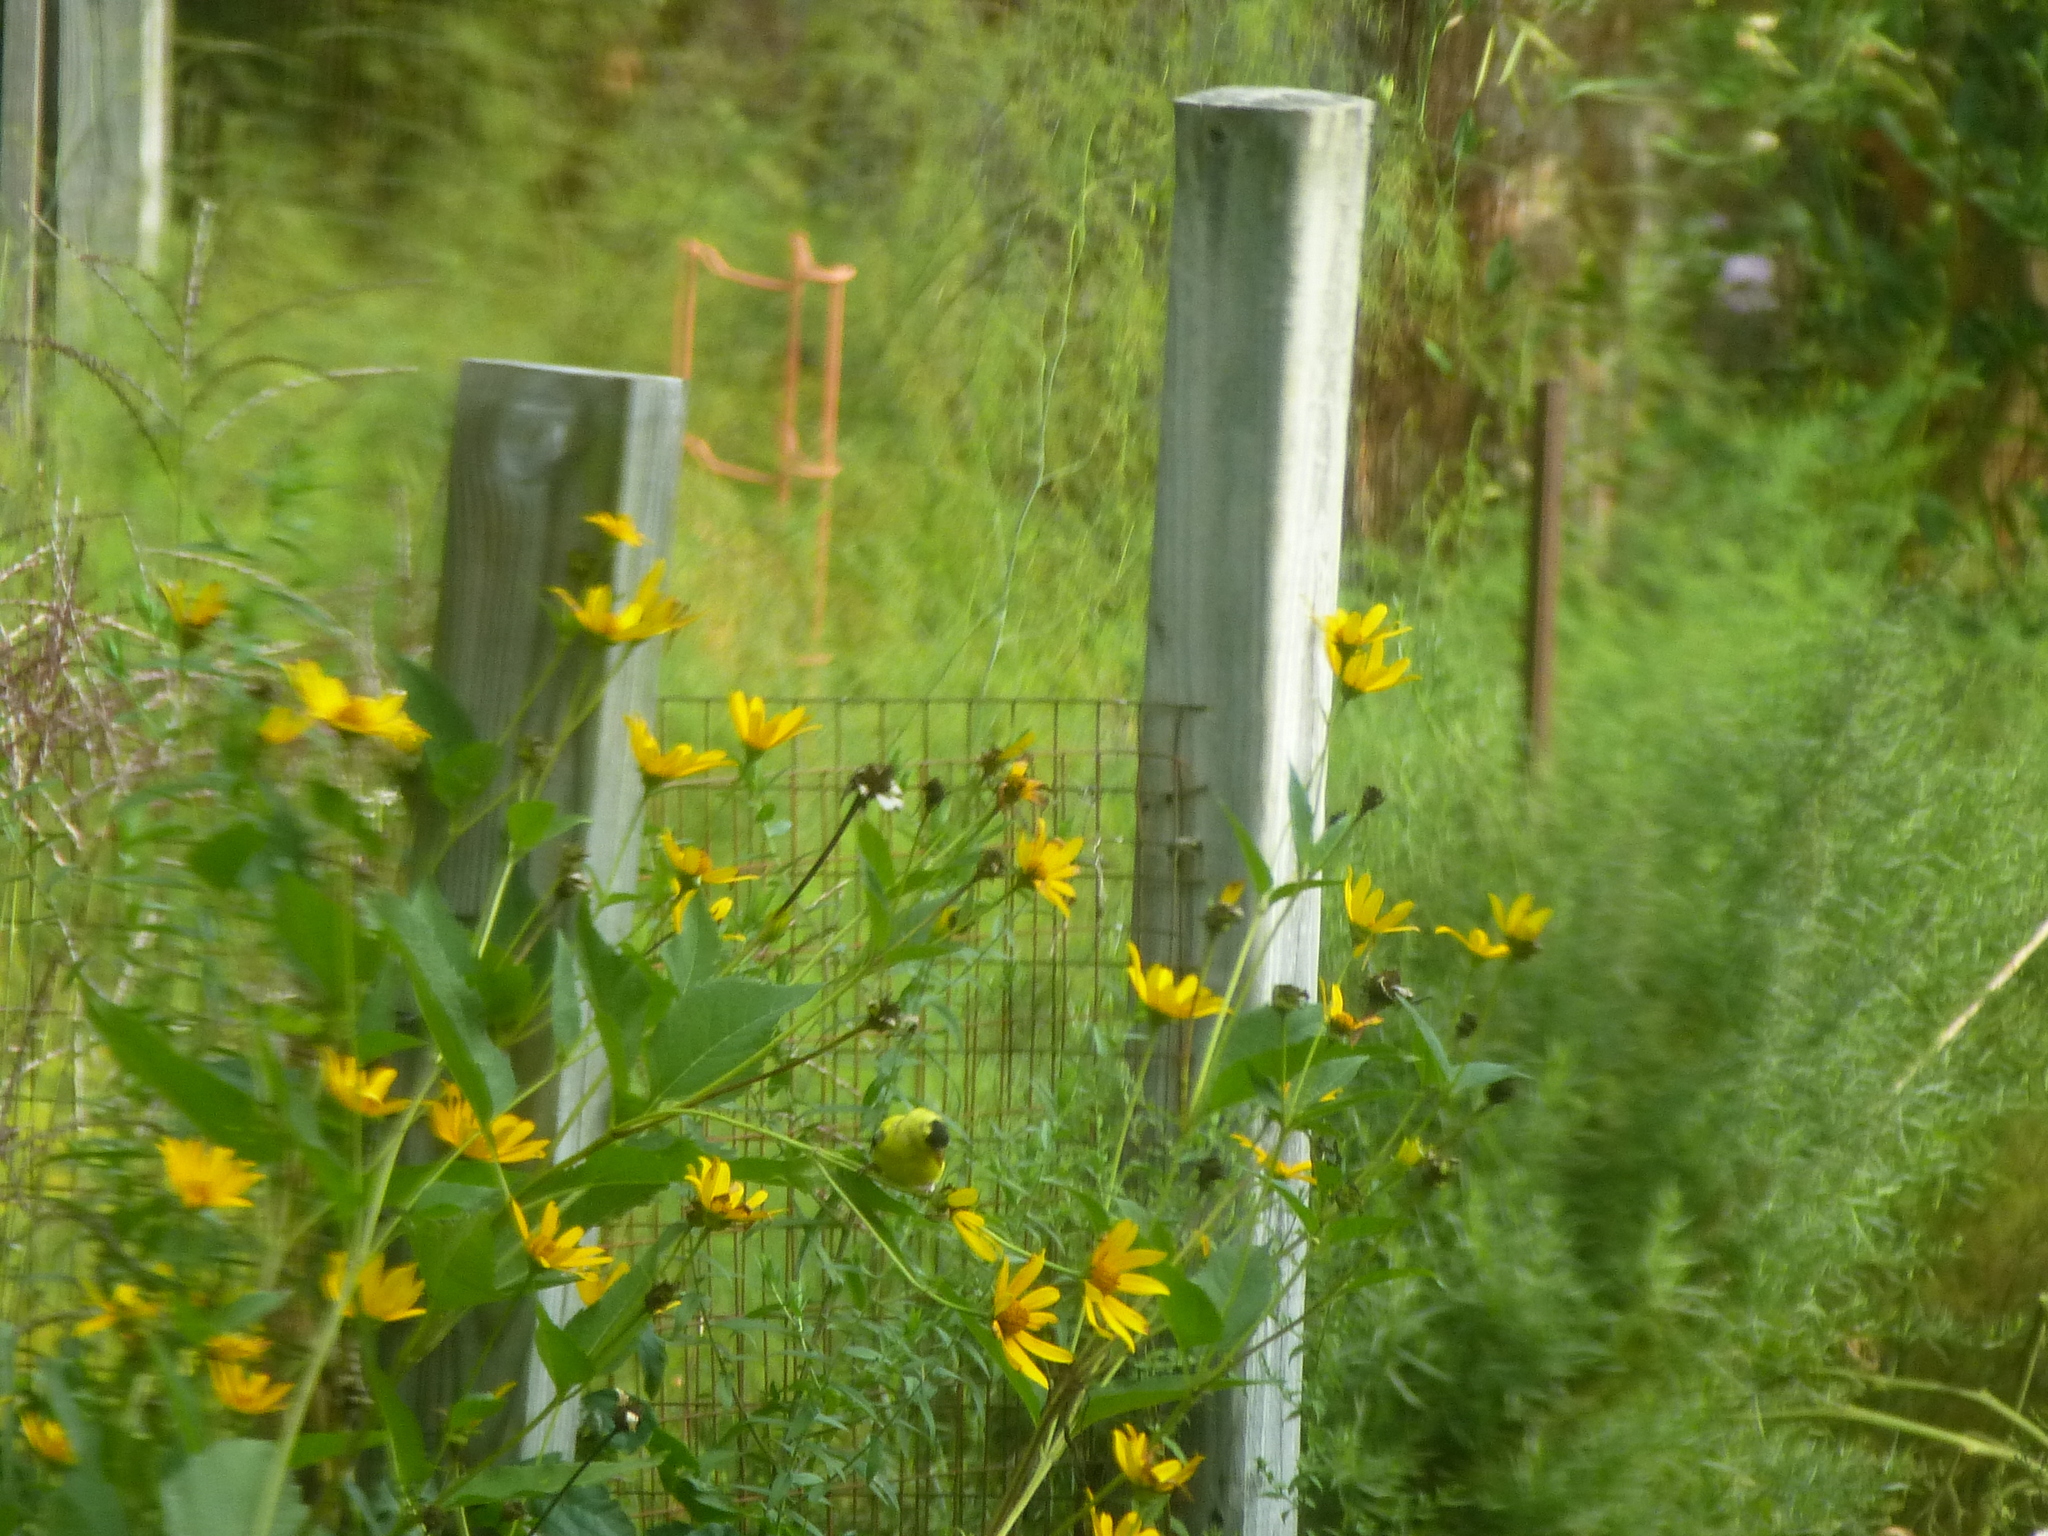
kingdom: Animalia
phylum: Chordata
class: Aves
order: Passeriformes
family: Fringillidae
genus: Spinus
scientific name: Spinus tristis
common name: American goldfinch
